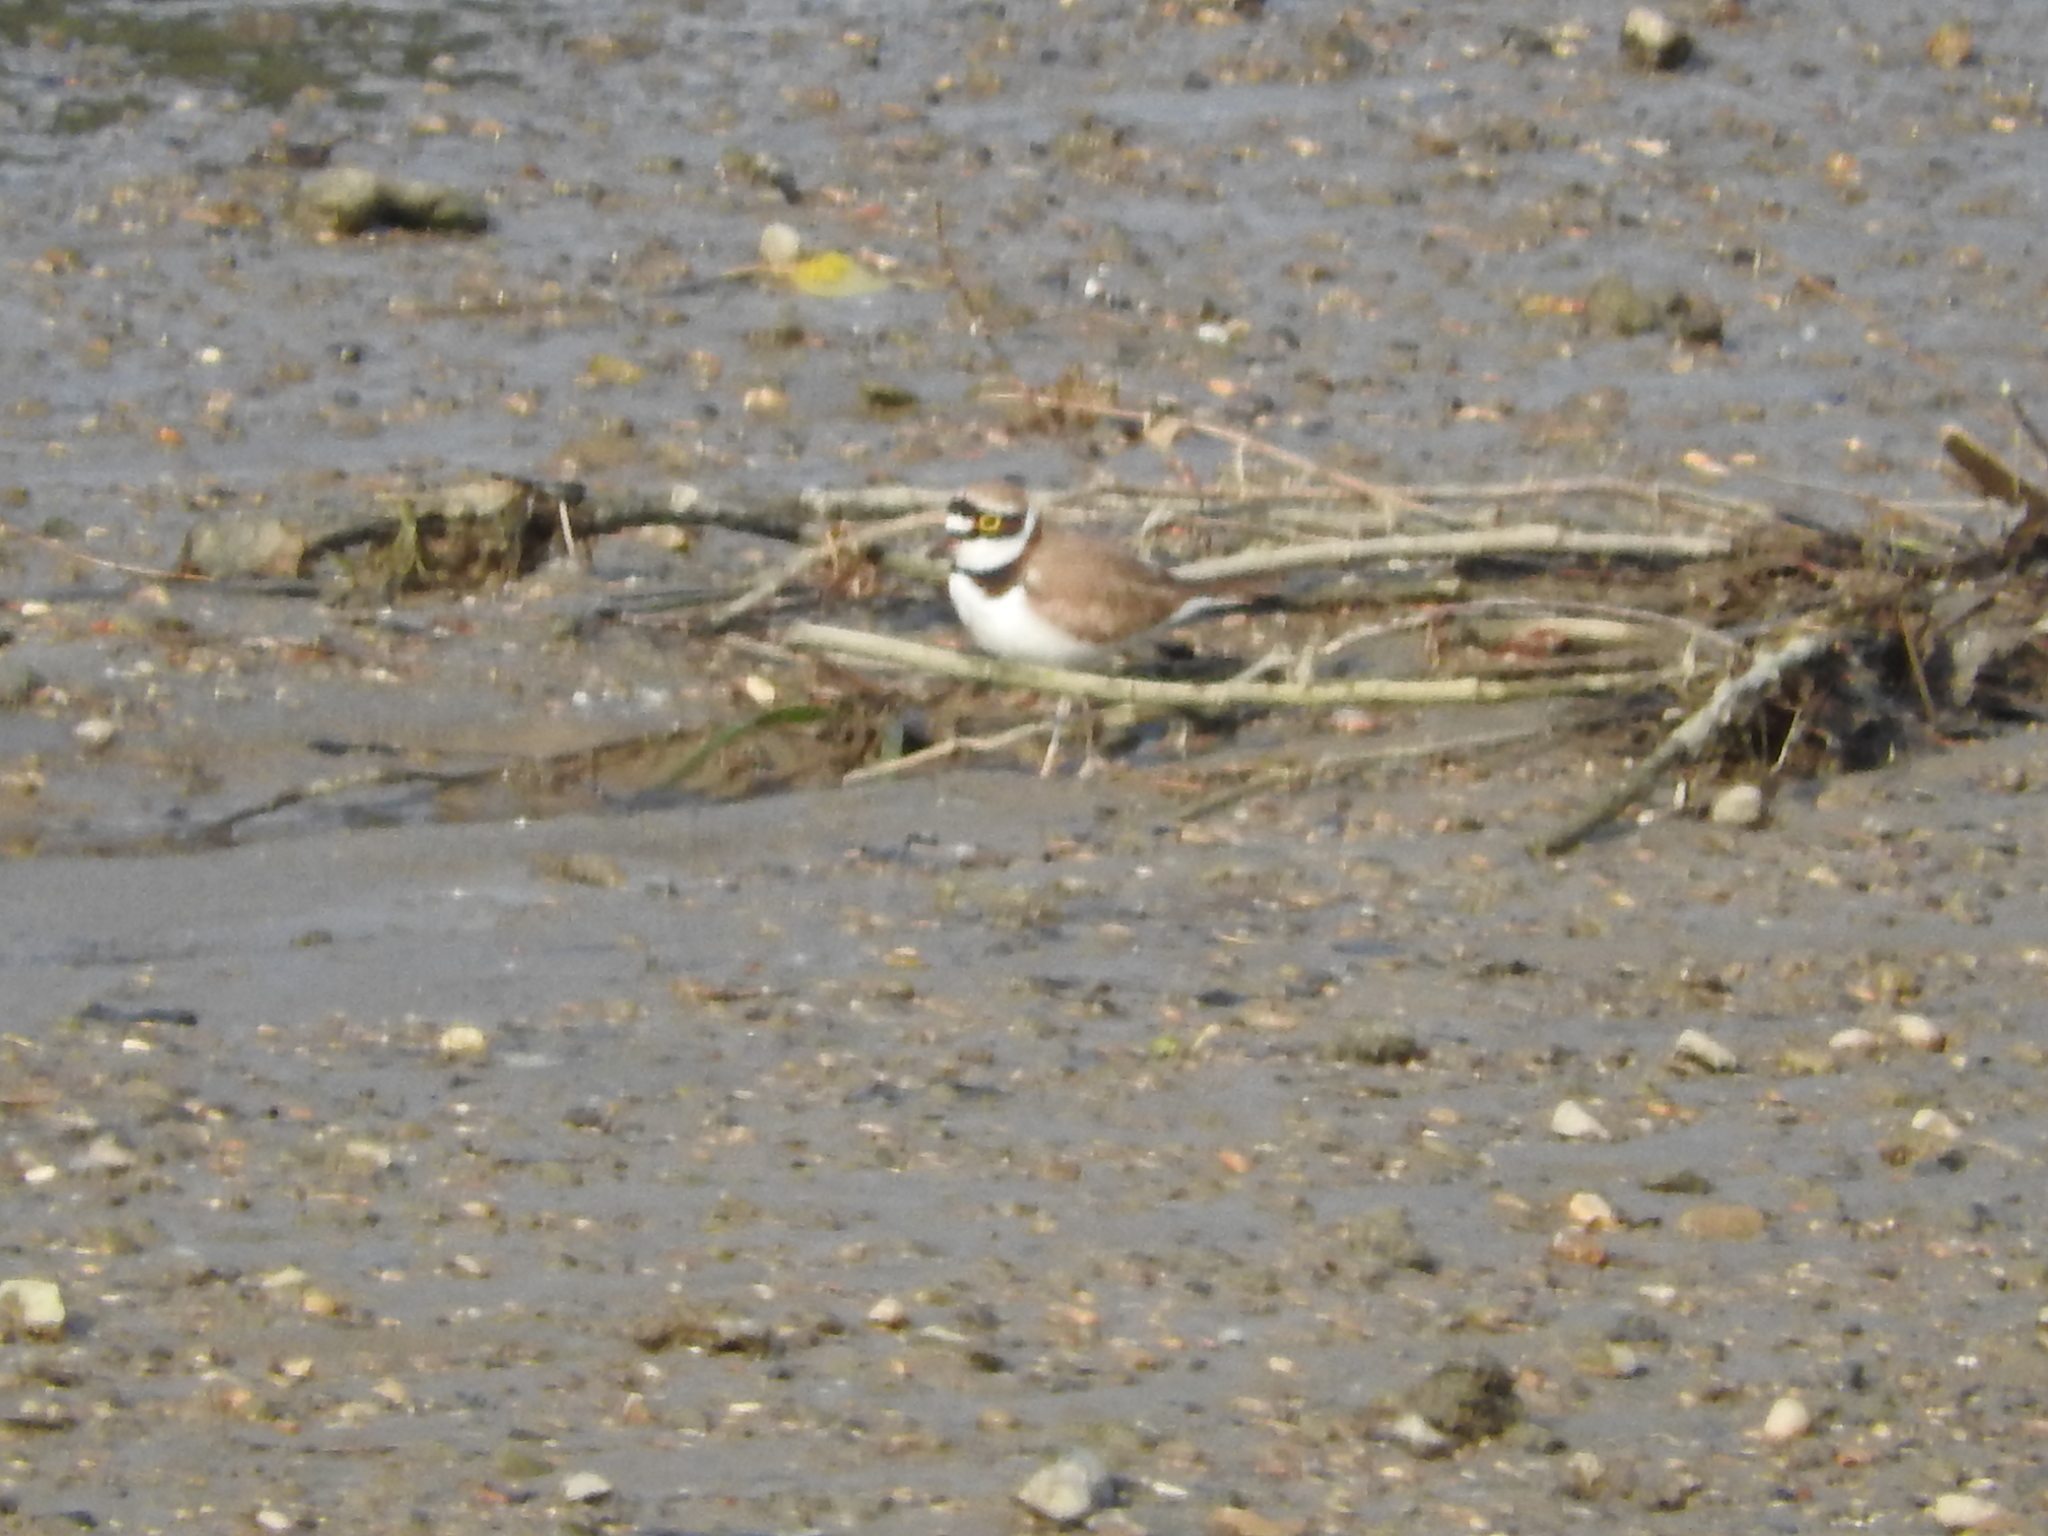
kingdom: Animalia
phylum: Chordata
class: Aves
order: Charadriiformes
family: Charadriidae
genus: Charadrius
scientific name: Charadrius dubius
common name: Little ringed plover
